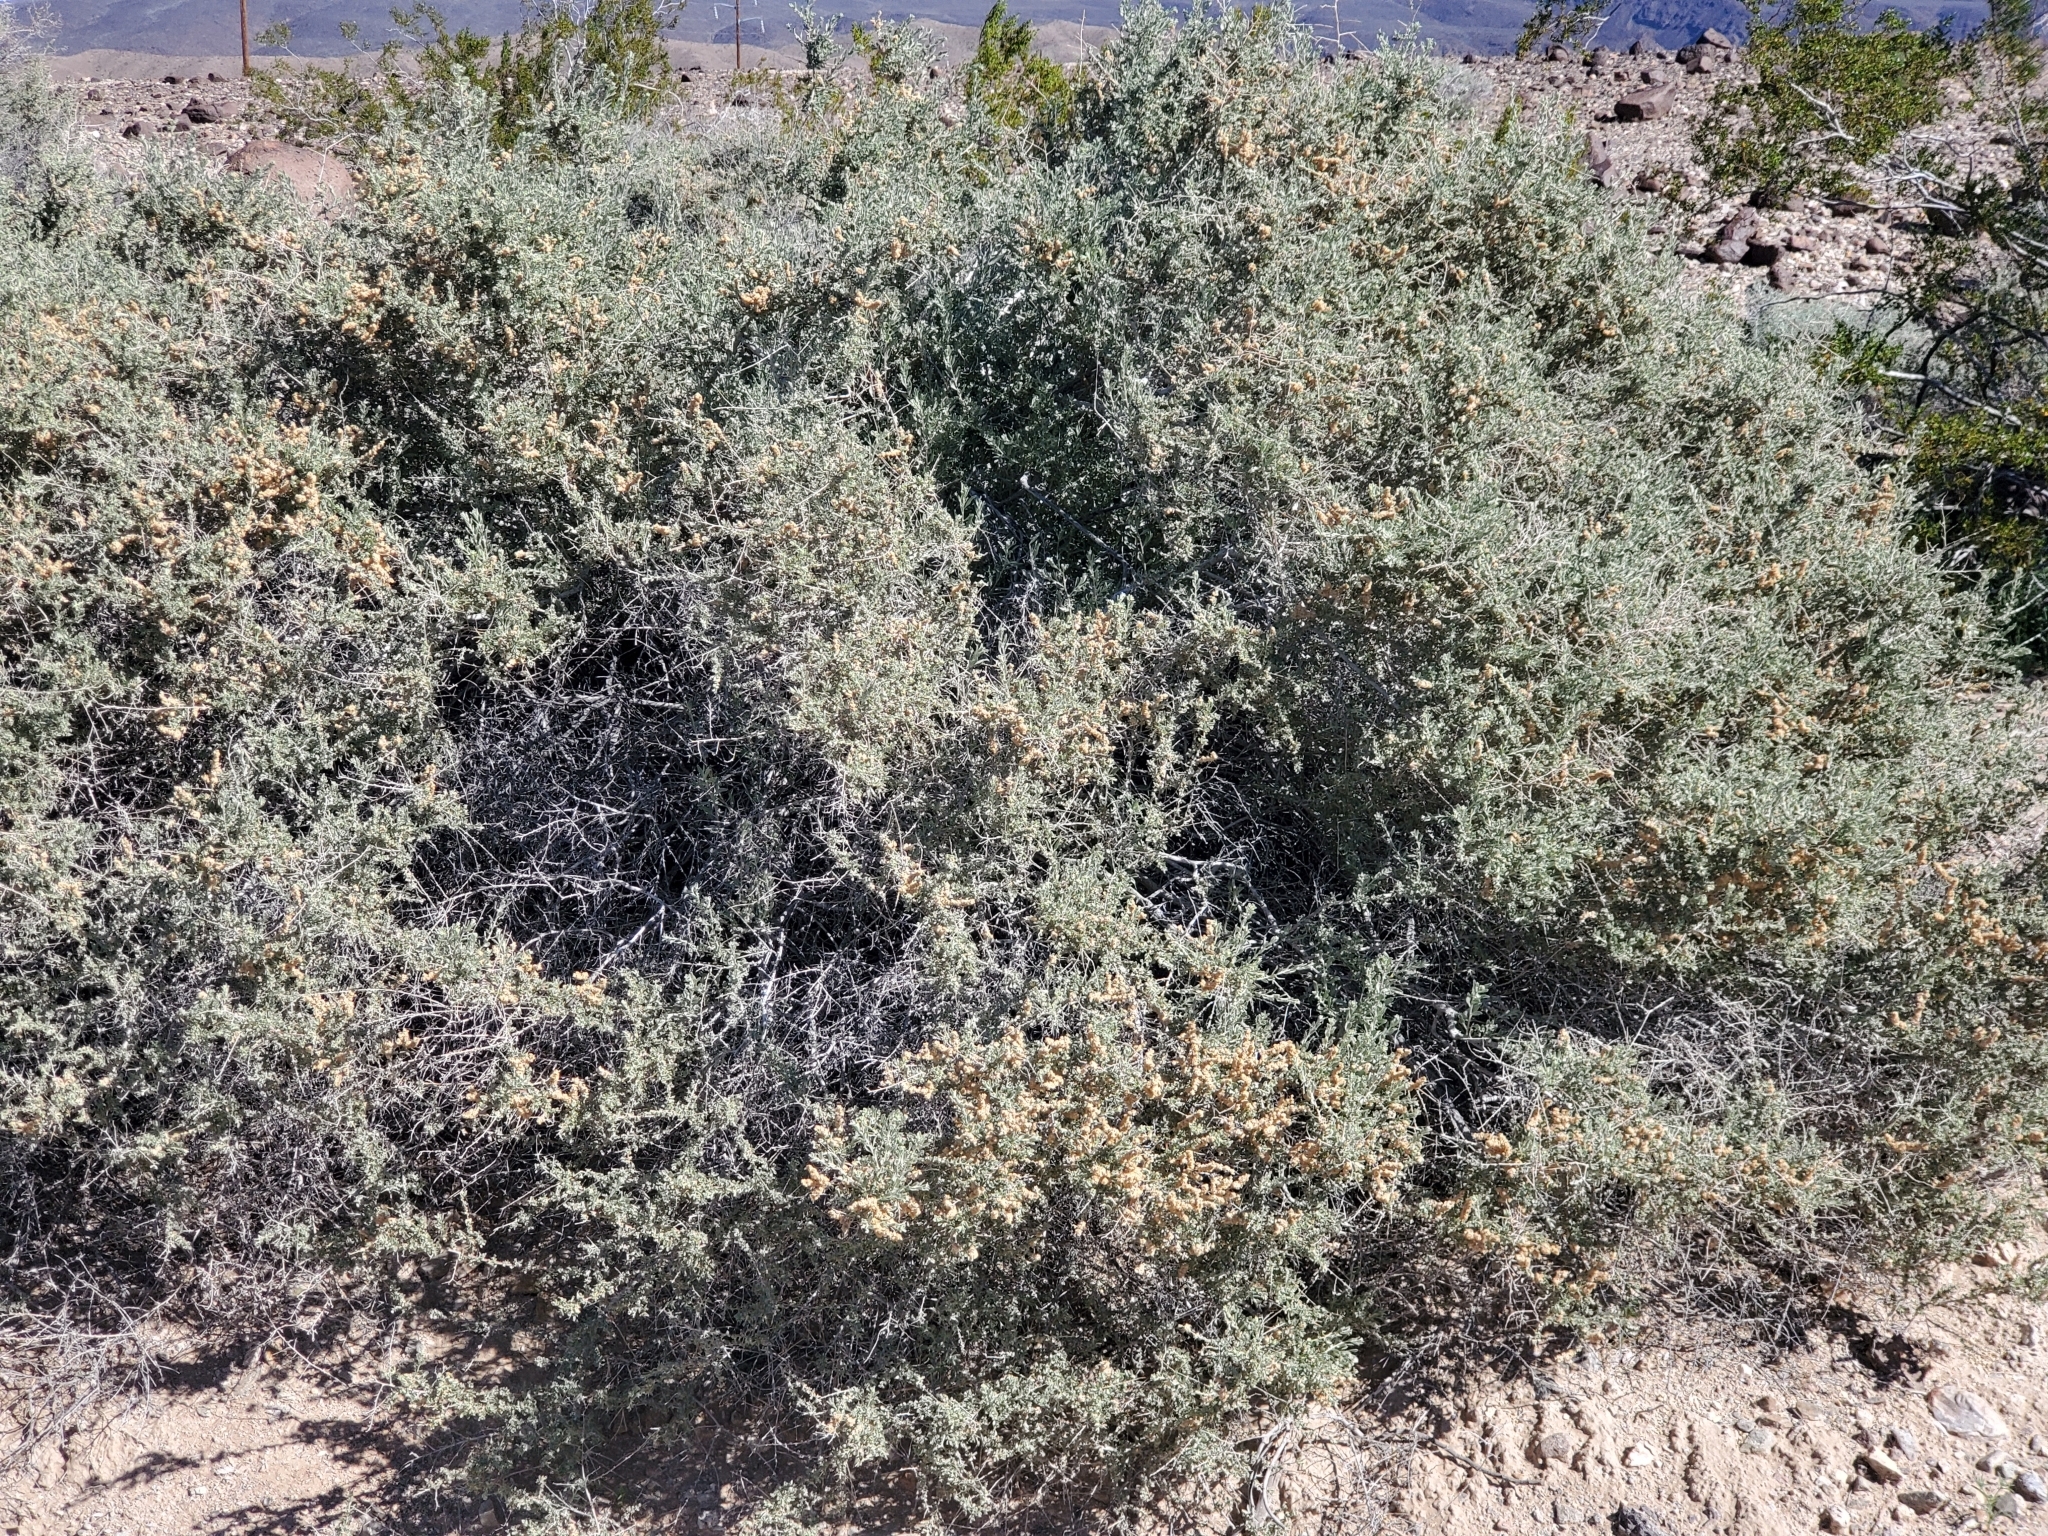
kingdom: Plantae
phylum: Tracheophyta
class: Magnoliopsida
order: Caryophyllales
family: Amaranthaceae
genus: Atriplex
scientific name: Atriplex polycarpa
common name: Desert saltbush
